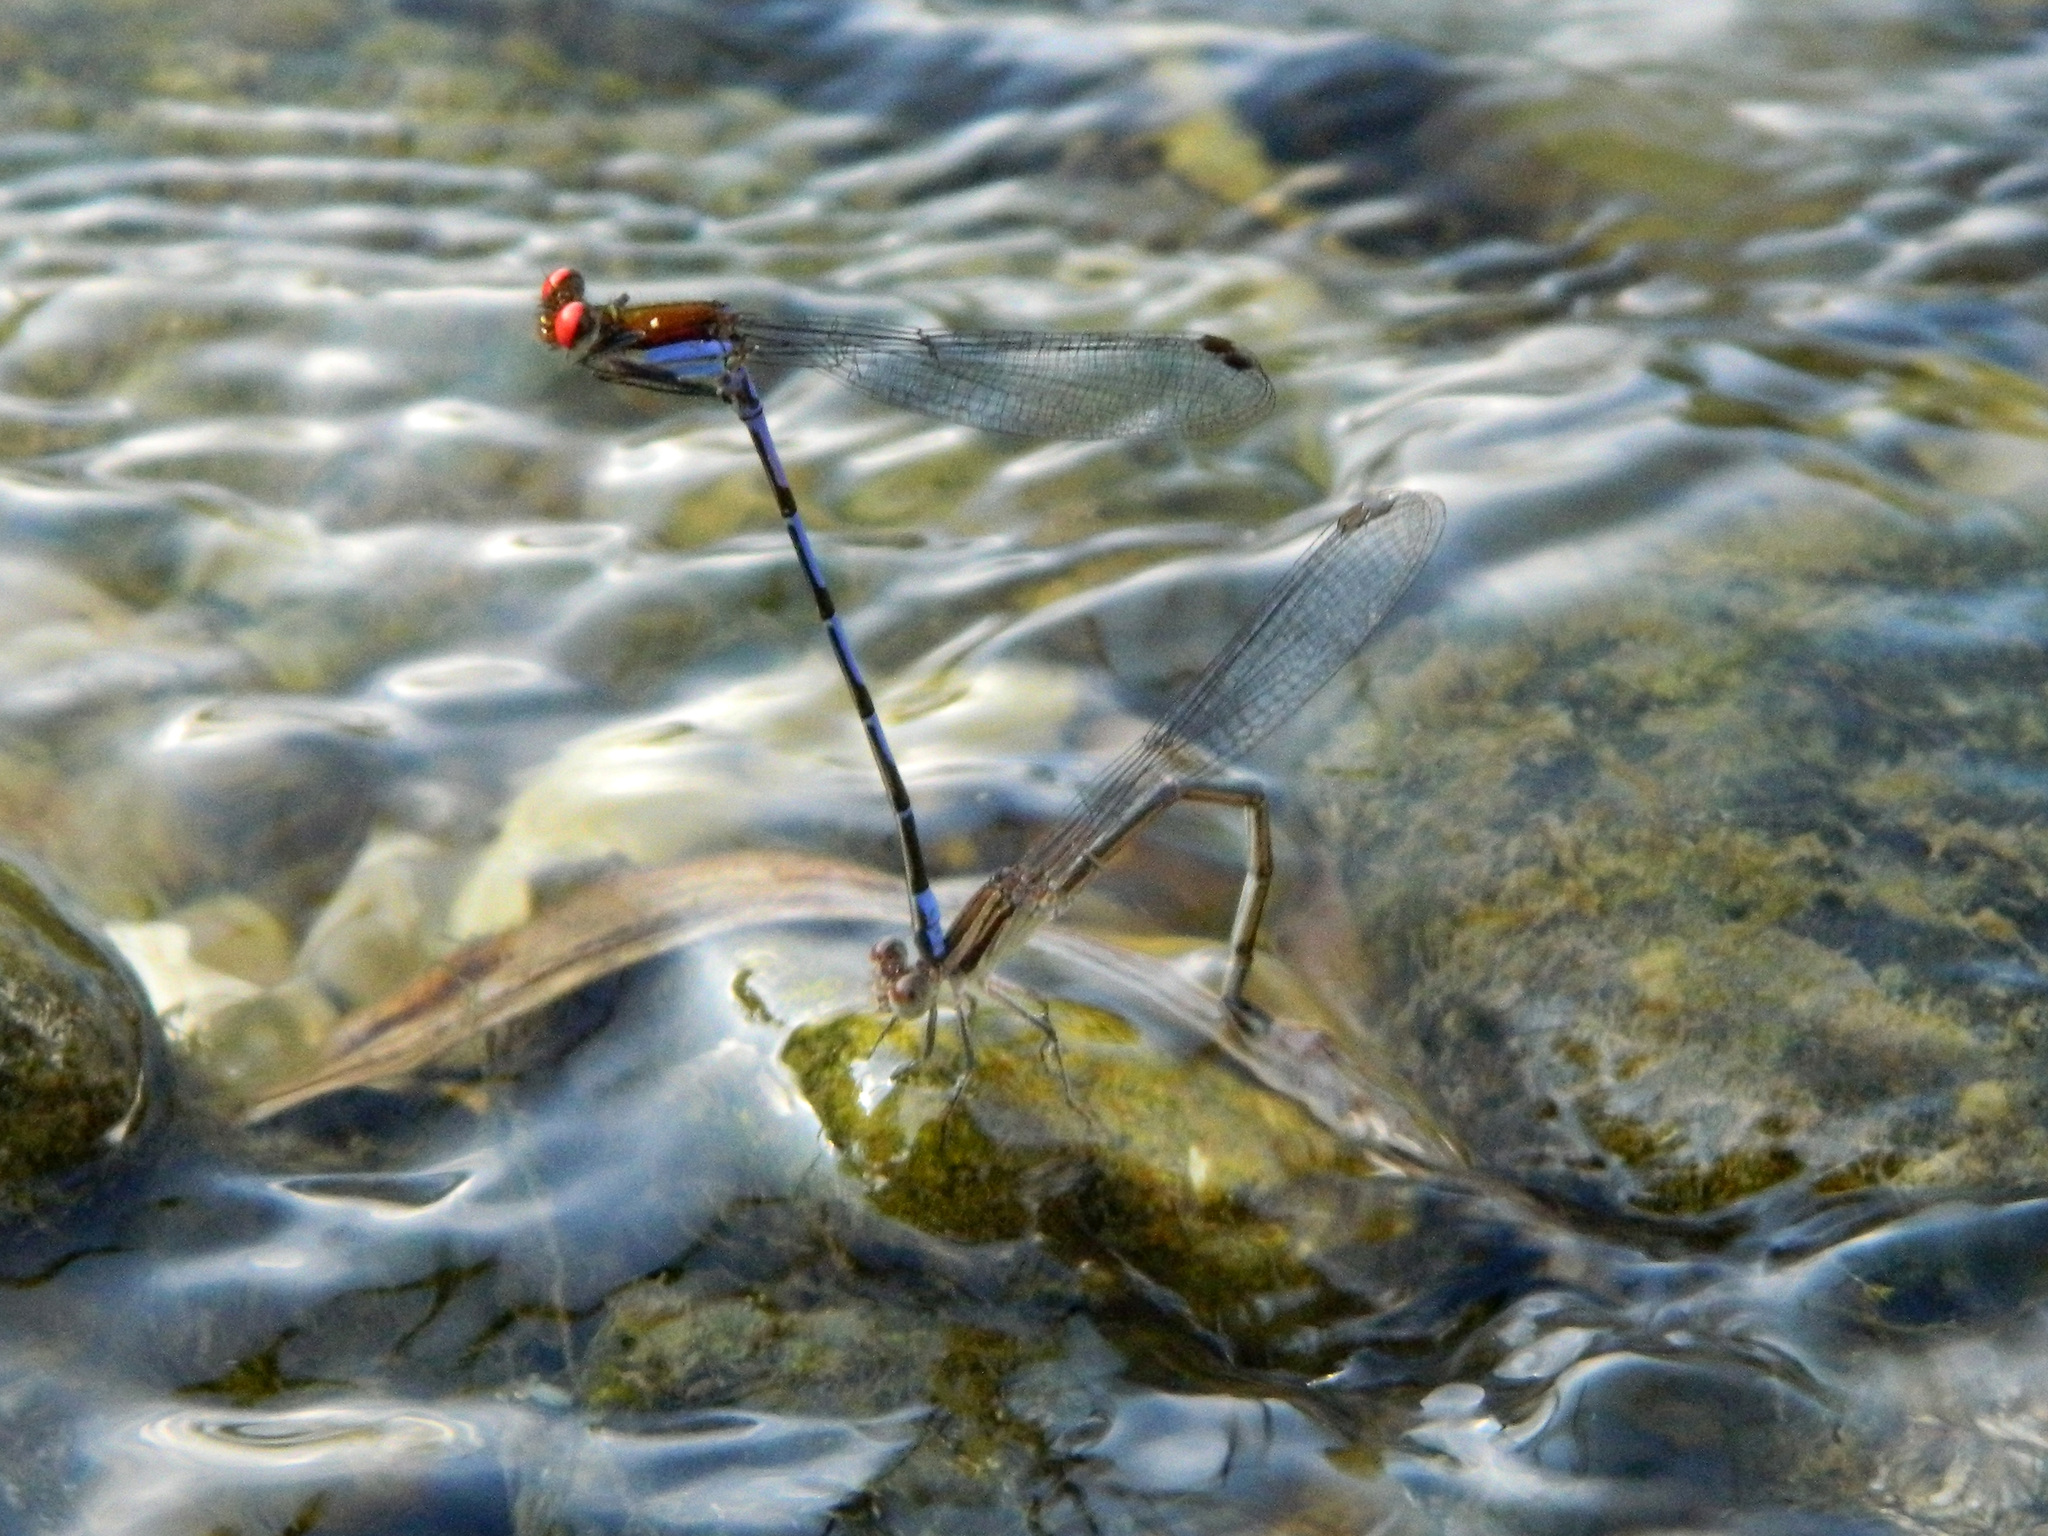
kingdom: Animalia
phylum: Arthropoda
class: Insecta
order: Odonata
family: Coenagrionidae
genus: Argia
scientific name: Argia oenea
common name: Fiery-eyed dancer
